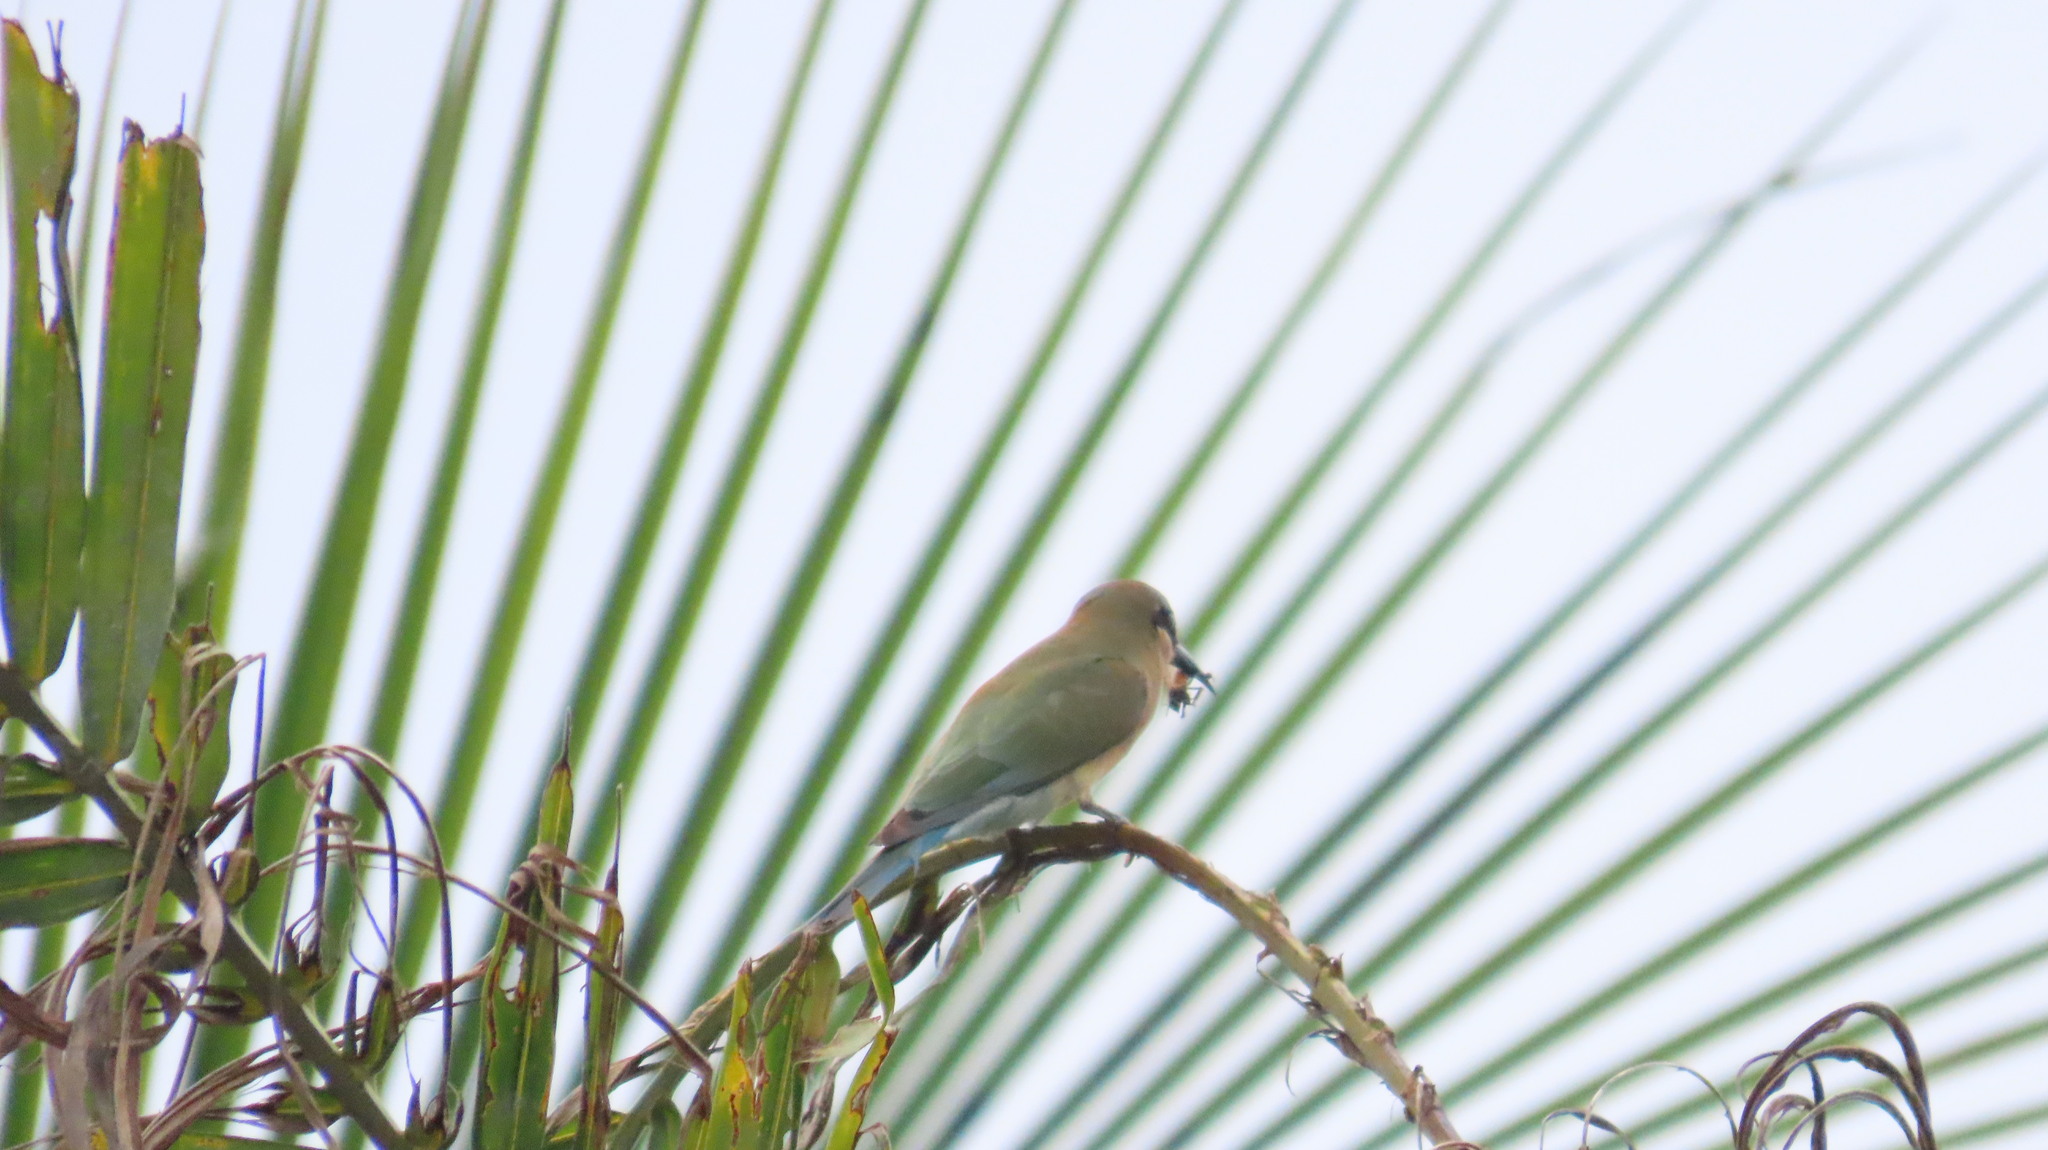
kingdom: Animalia
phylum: Chordata
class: Aves
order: Coraciiformes
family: Meropidae
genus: Merops
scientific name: Merops philippinus
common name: Blue-tailed bee-eater
